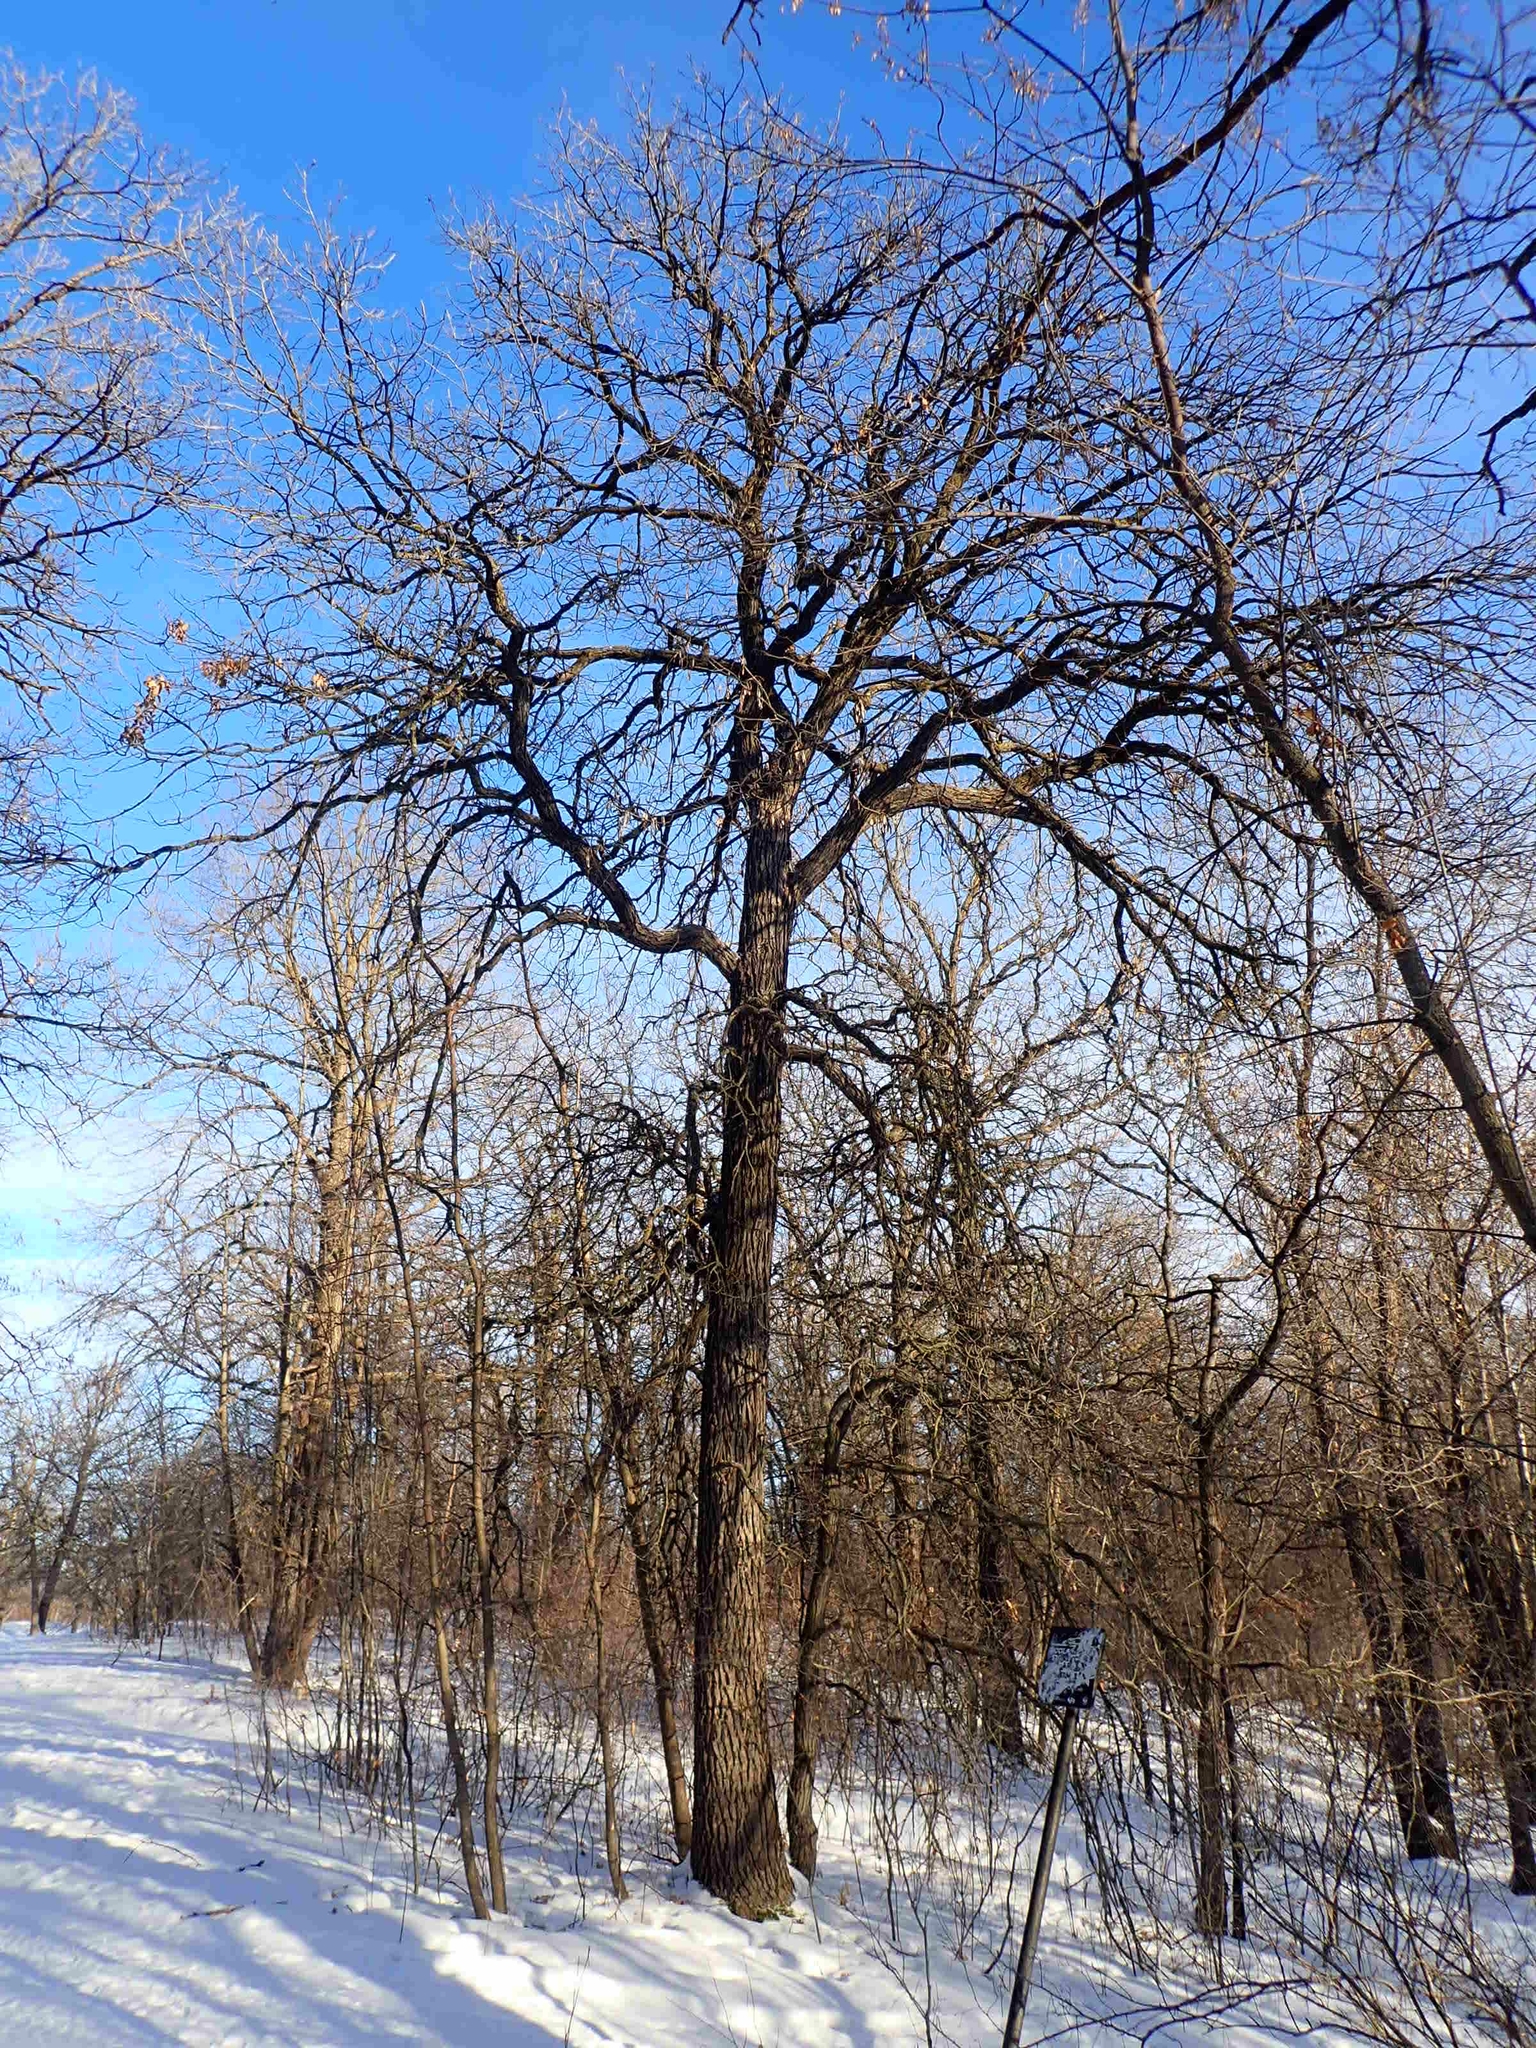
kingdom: Plantae
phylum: Tracheophyta
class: Magnoliopsida
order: Fagales
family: Fagaceae
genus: Quercus
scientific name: Quercus macrocarpa
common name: Bur oak
